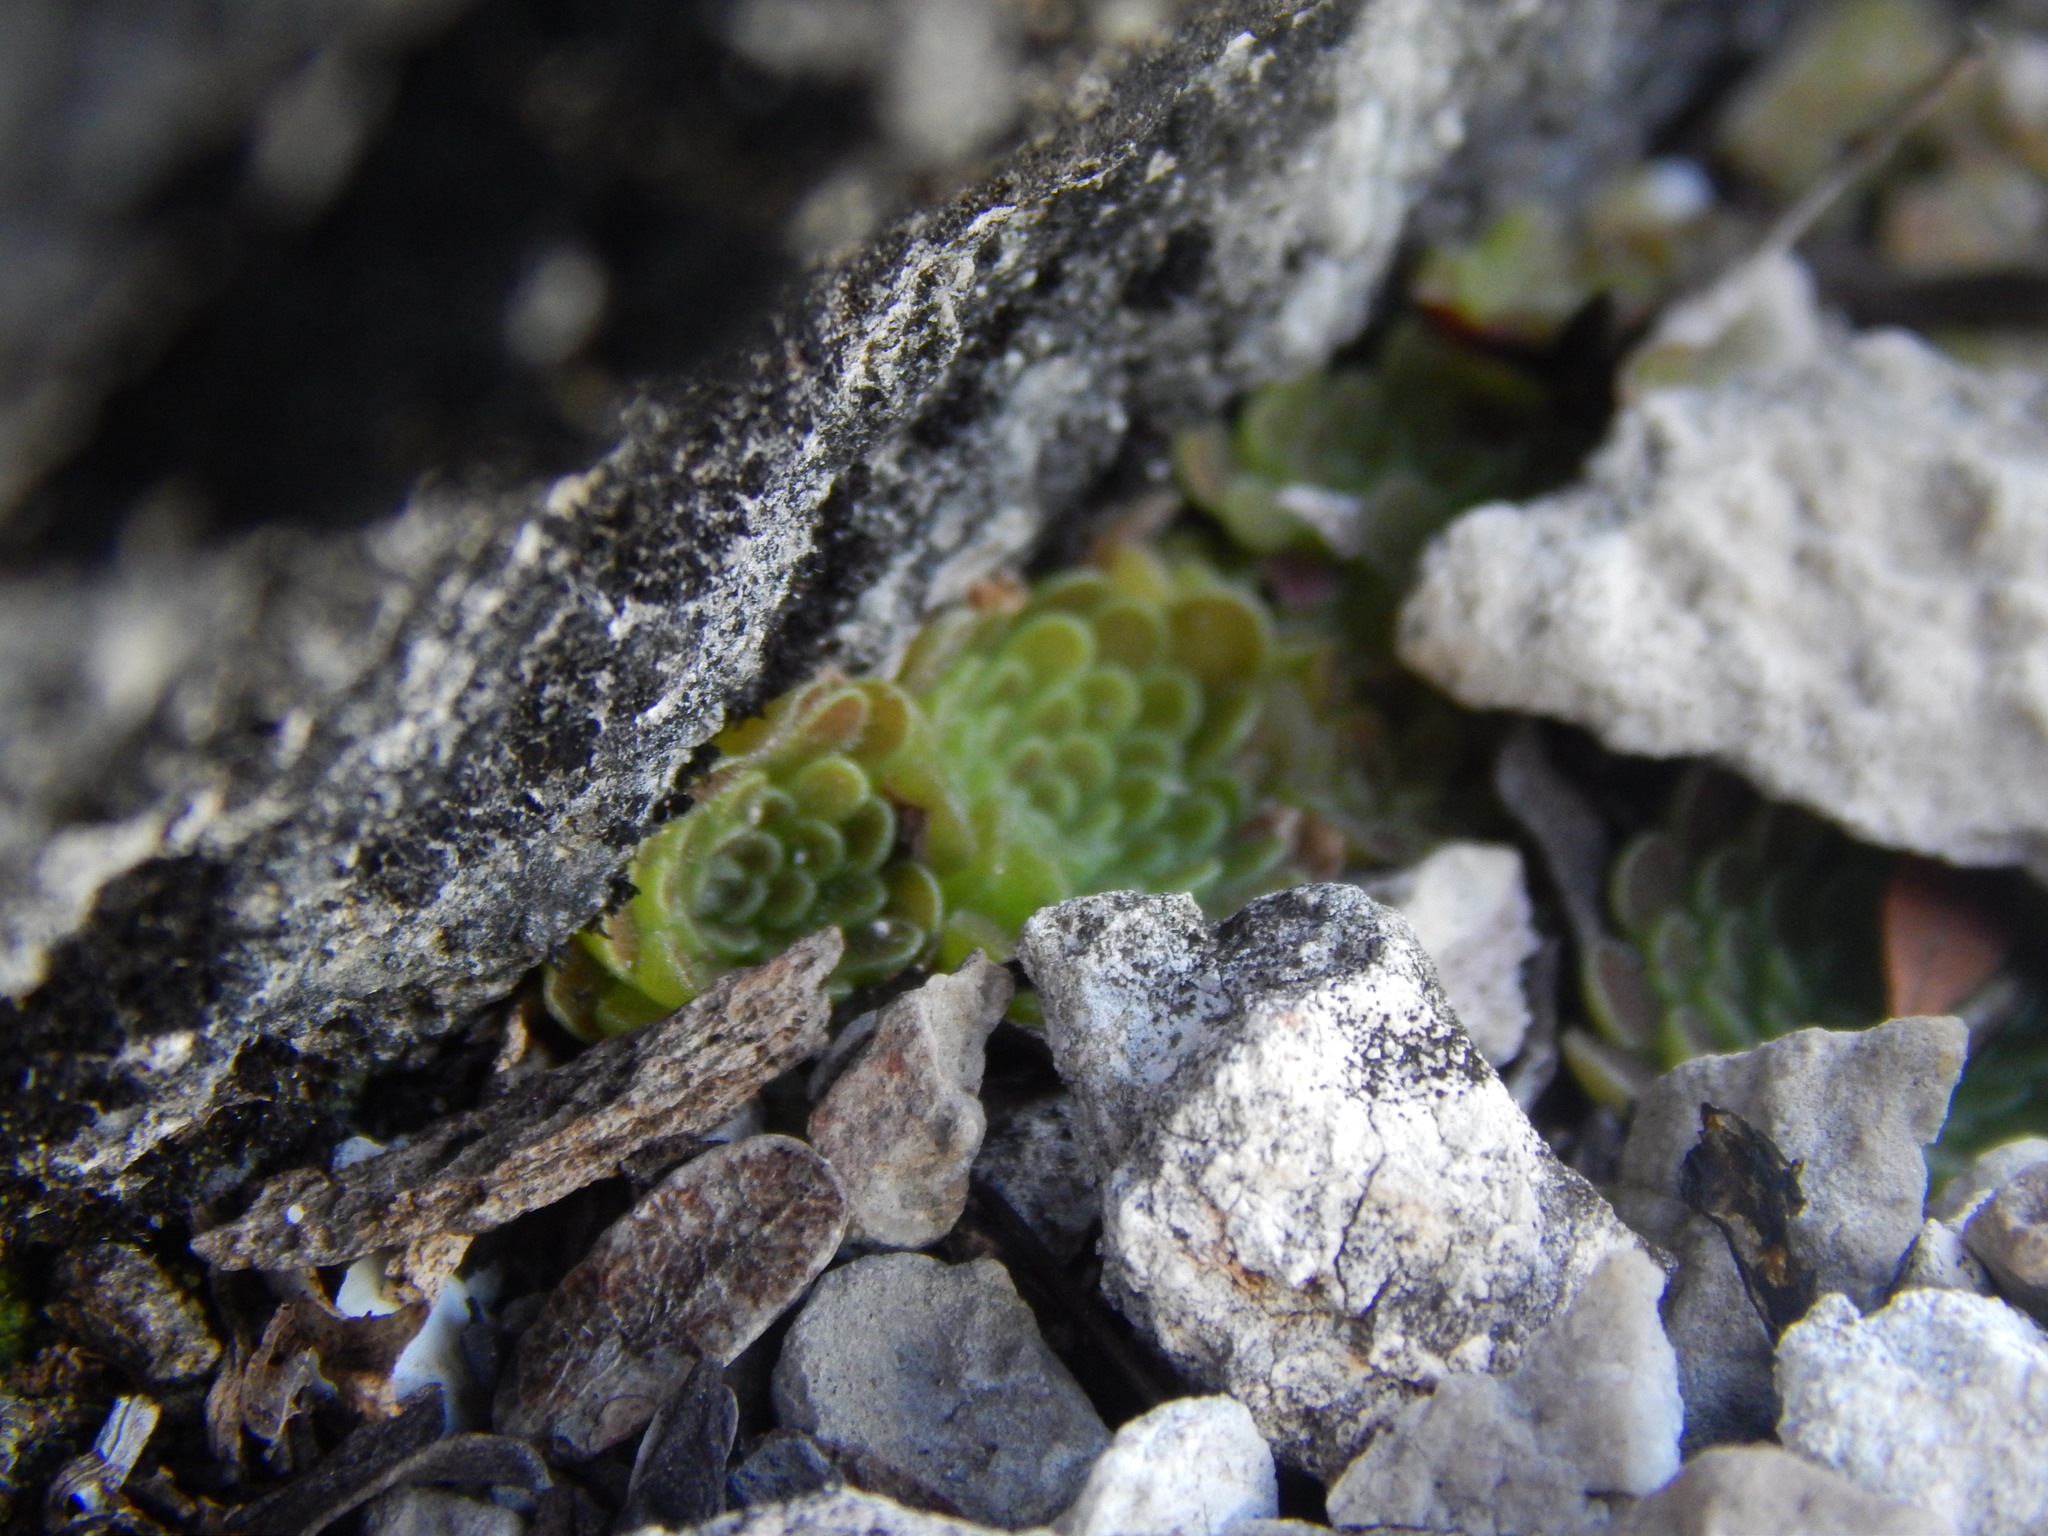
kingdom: Plantae
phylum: Tracheophyta
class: Magnoliopsida
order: Lamiales
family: Lentibulariaceae
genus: Pinguicula
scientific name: Pinguicula esseriana
